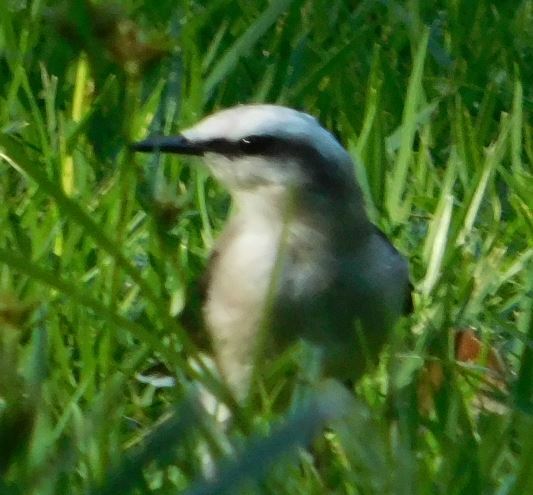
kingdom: Animalia
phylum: Chordata
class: Aves
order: Passeriformes
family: Tyrannidae
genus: Fluvicola
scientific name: Fluvicola nengeta
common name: Masked water tyrant
